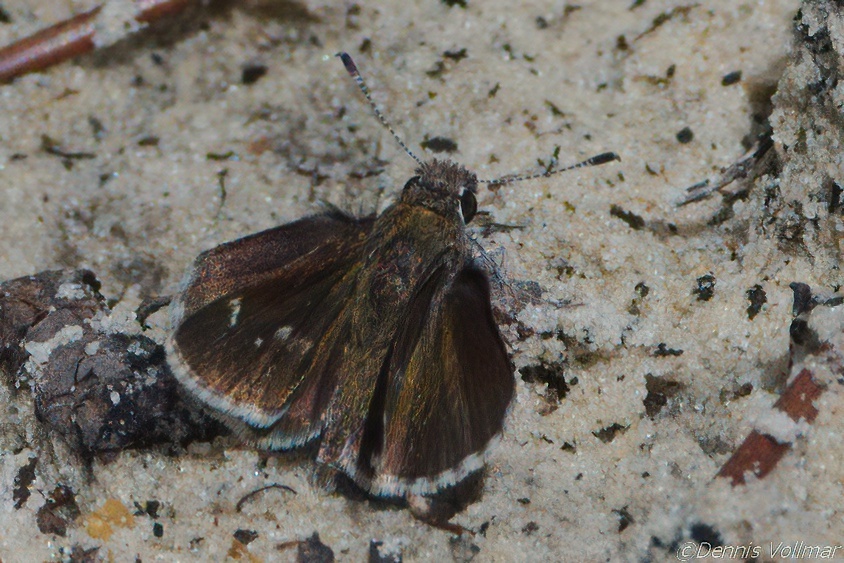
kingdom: Animalia
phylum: Arthropoda
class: Insecta
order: Lepidoptera
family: Hesperiidae
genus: Mastor
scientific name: Mastor aesculapius
